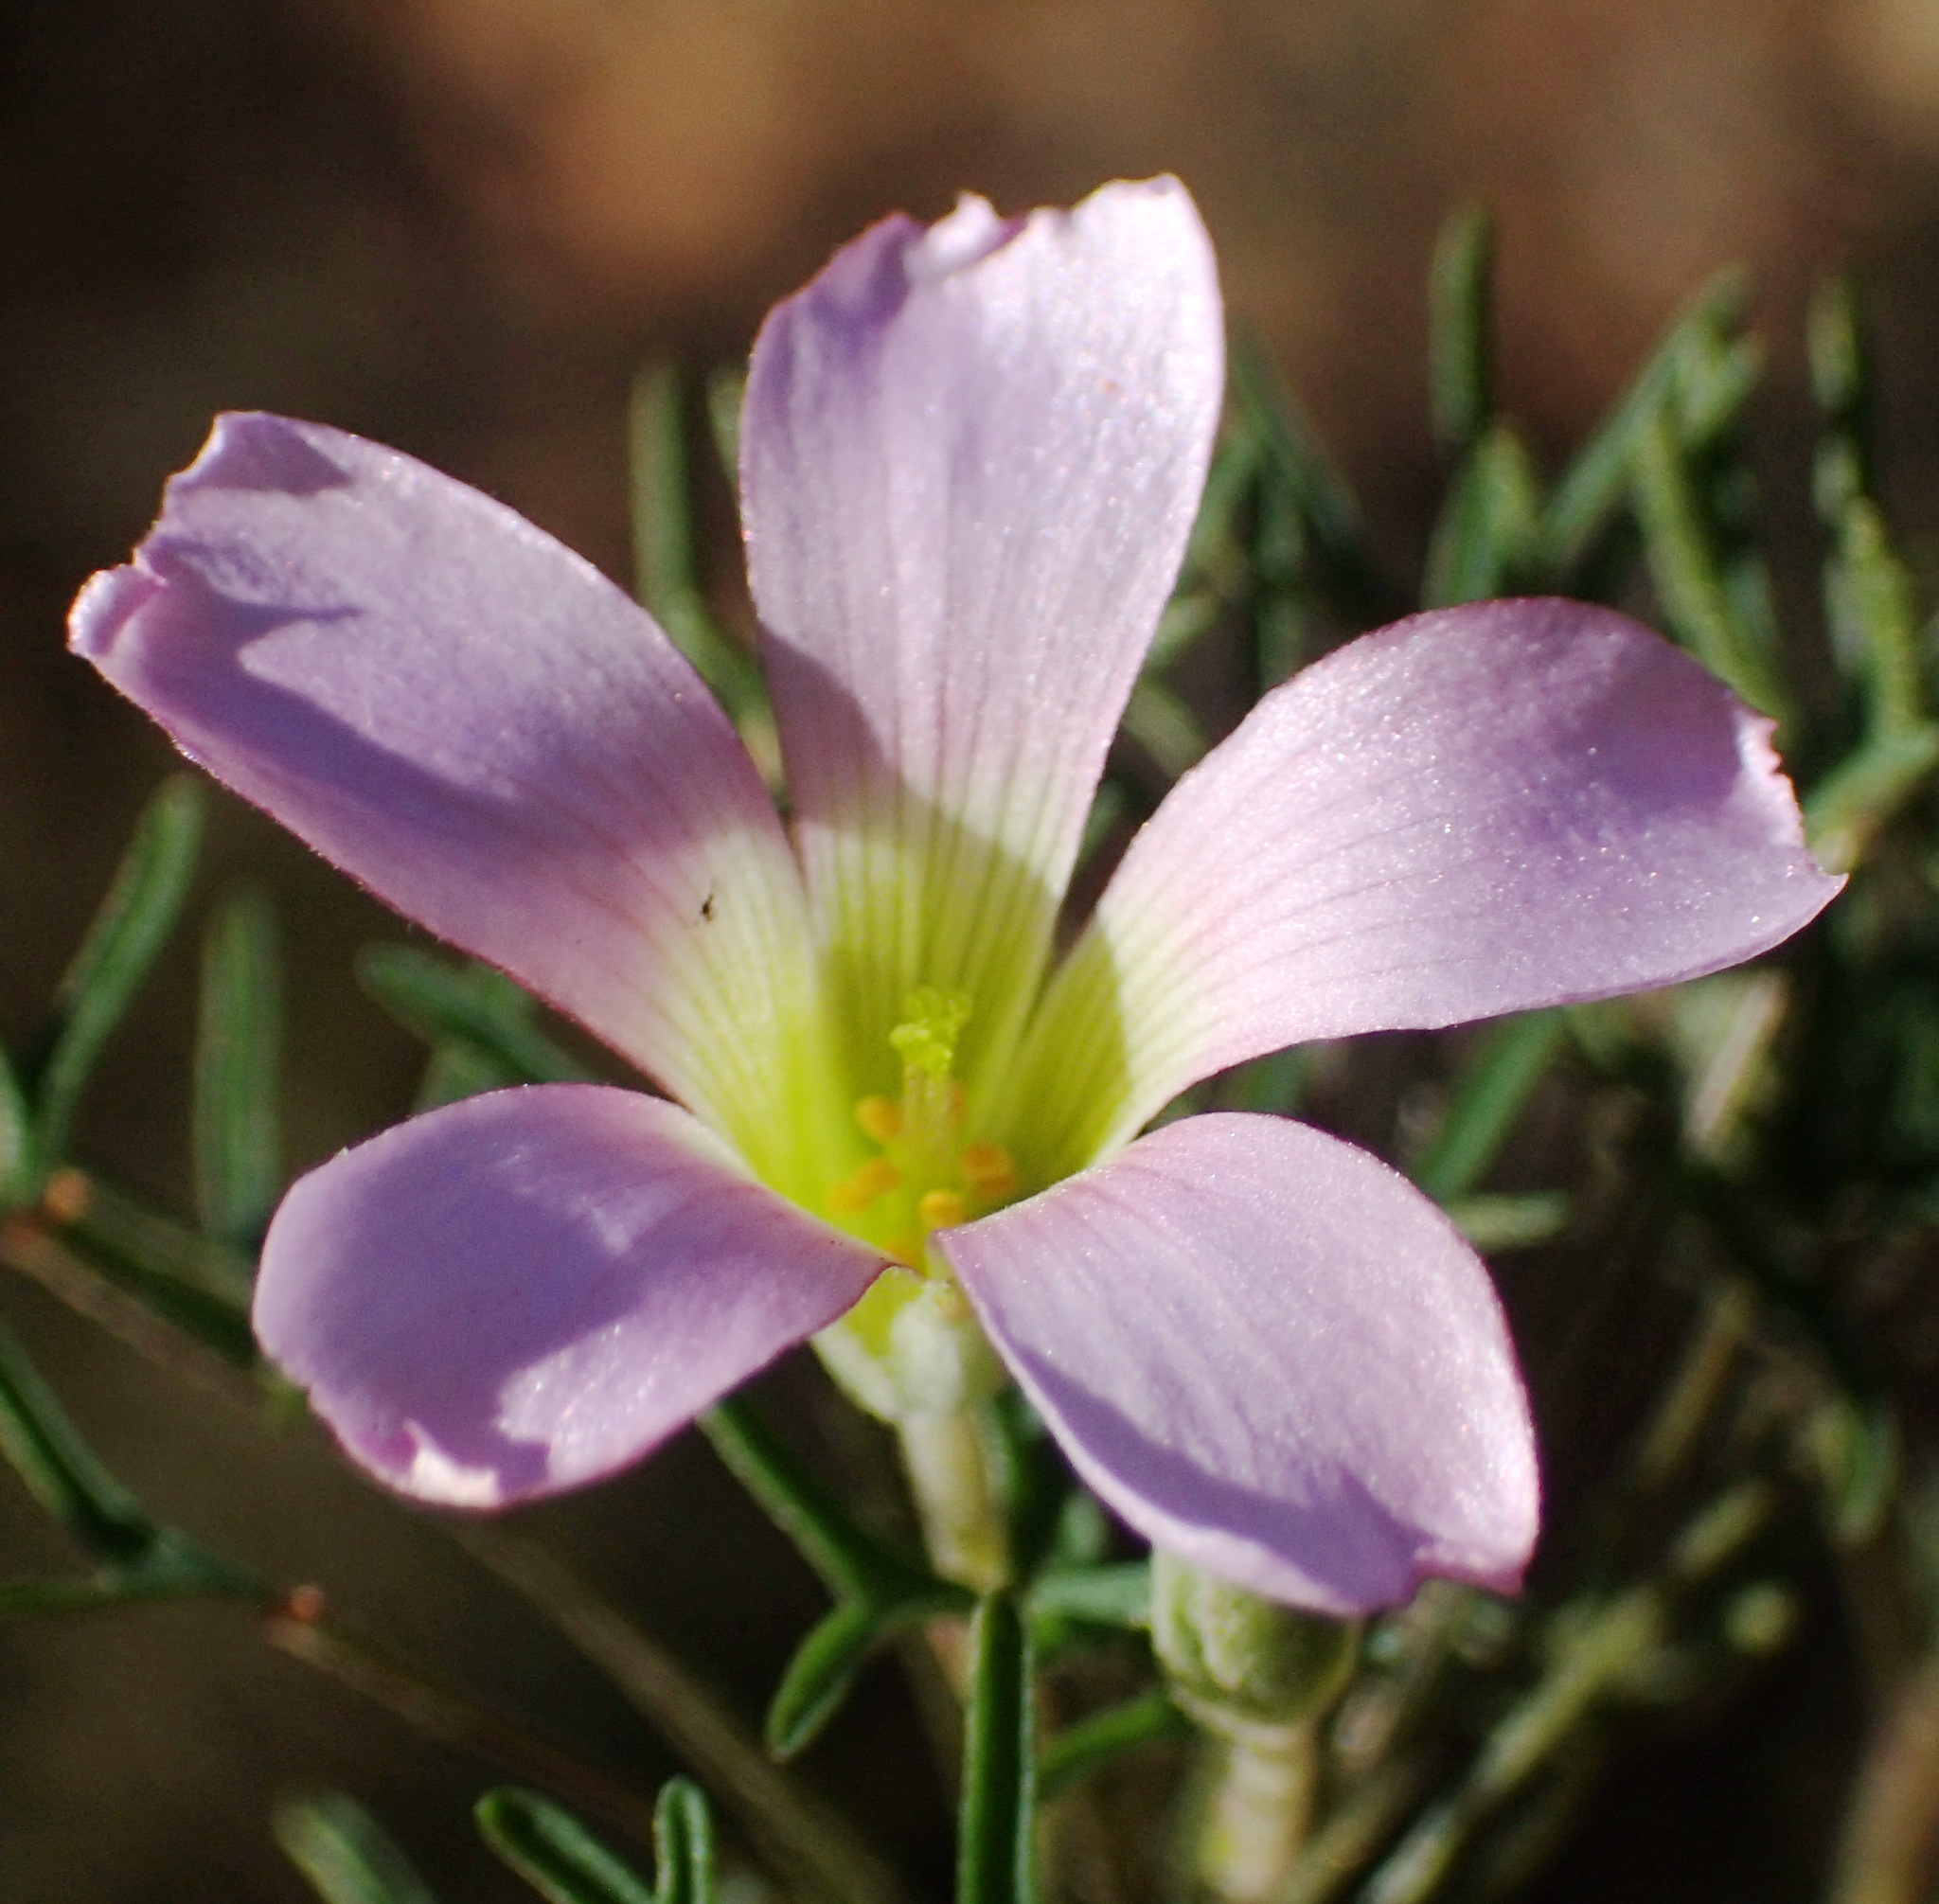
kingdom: Plantae
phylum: Tracheophyta
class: Magnoliopsida
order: Oxalidales
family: Oxalidaceae
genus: Oxalis
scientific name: Oxalis bifurca
